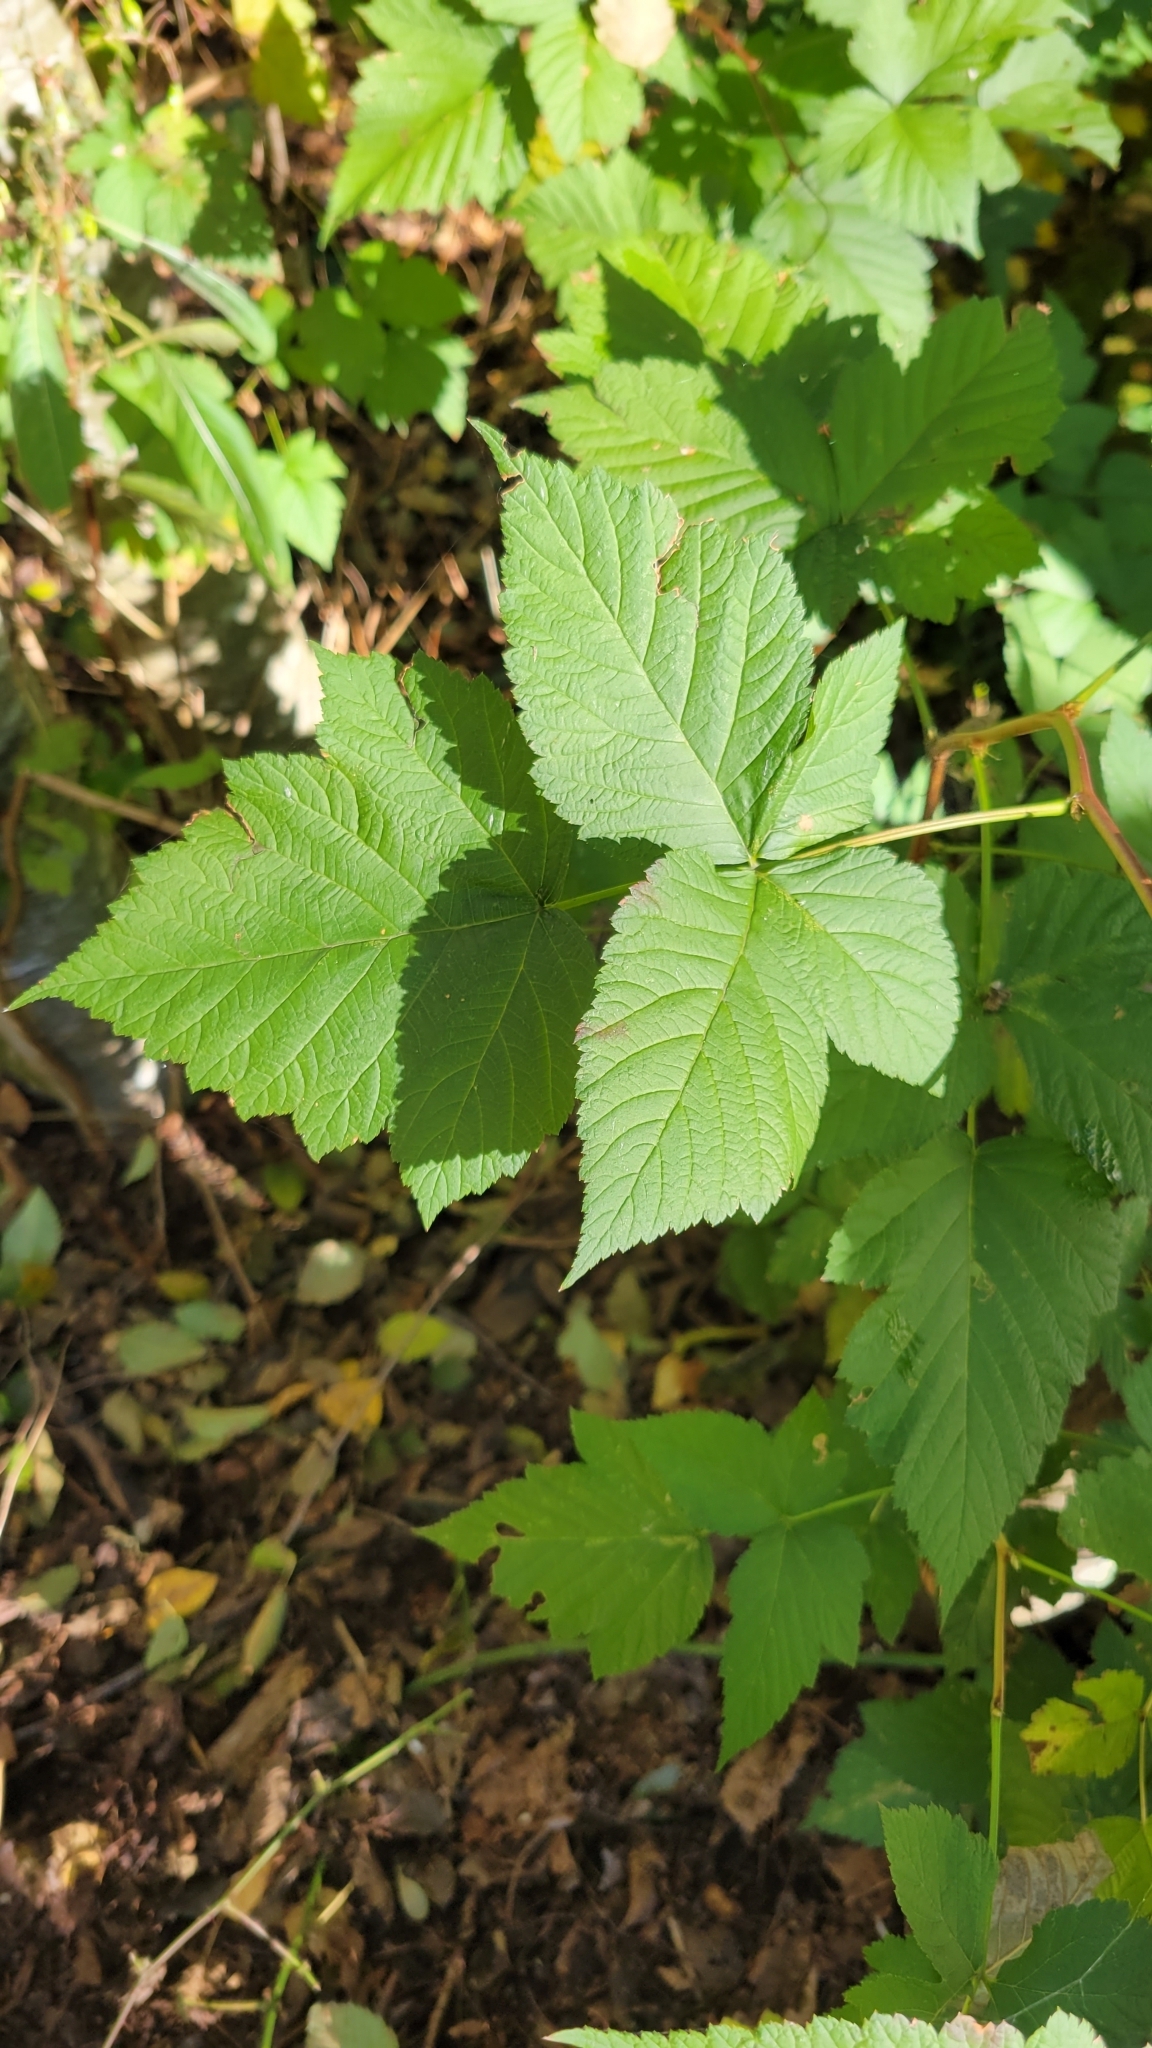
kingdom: Plantae
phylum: Tracheophyta
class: Magnoliopsida
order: Rosales
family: Rosaceae
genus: Rubus
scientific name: Rubus spectabilis
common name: Salmonberry
